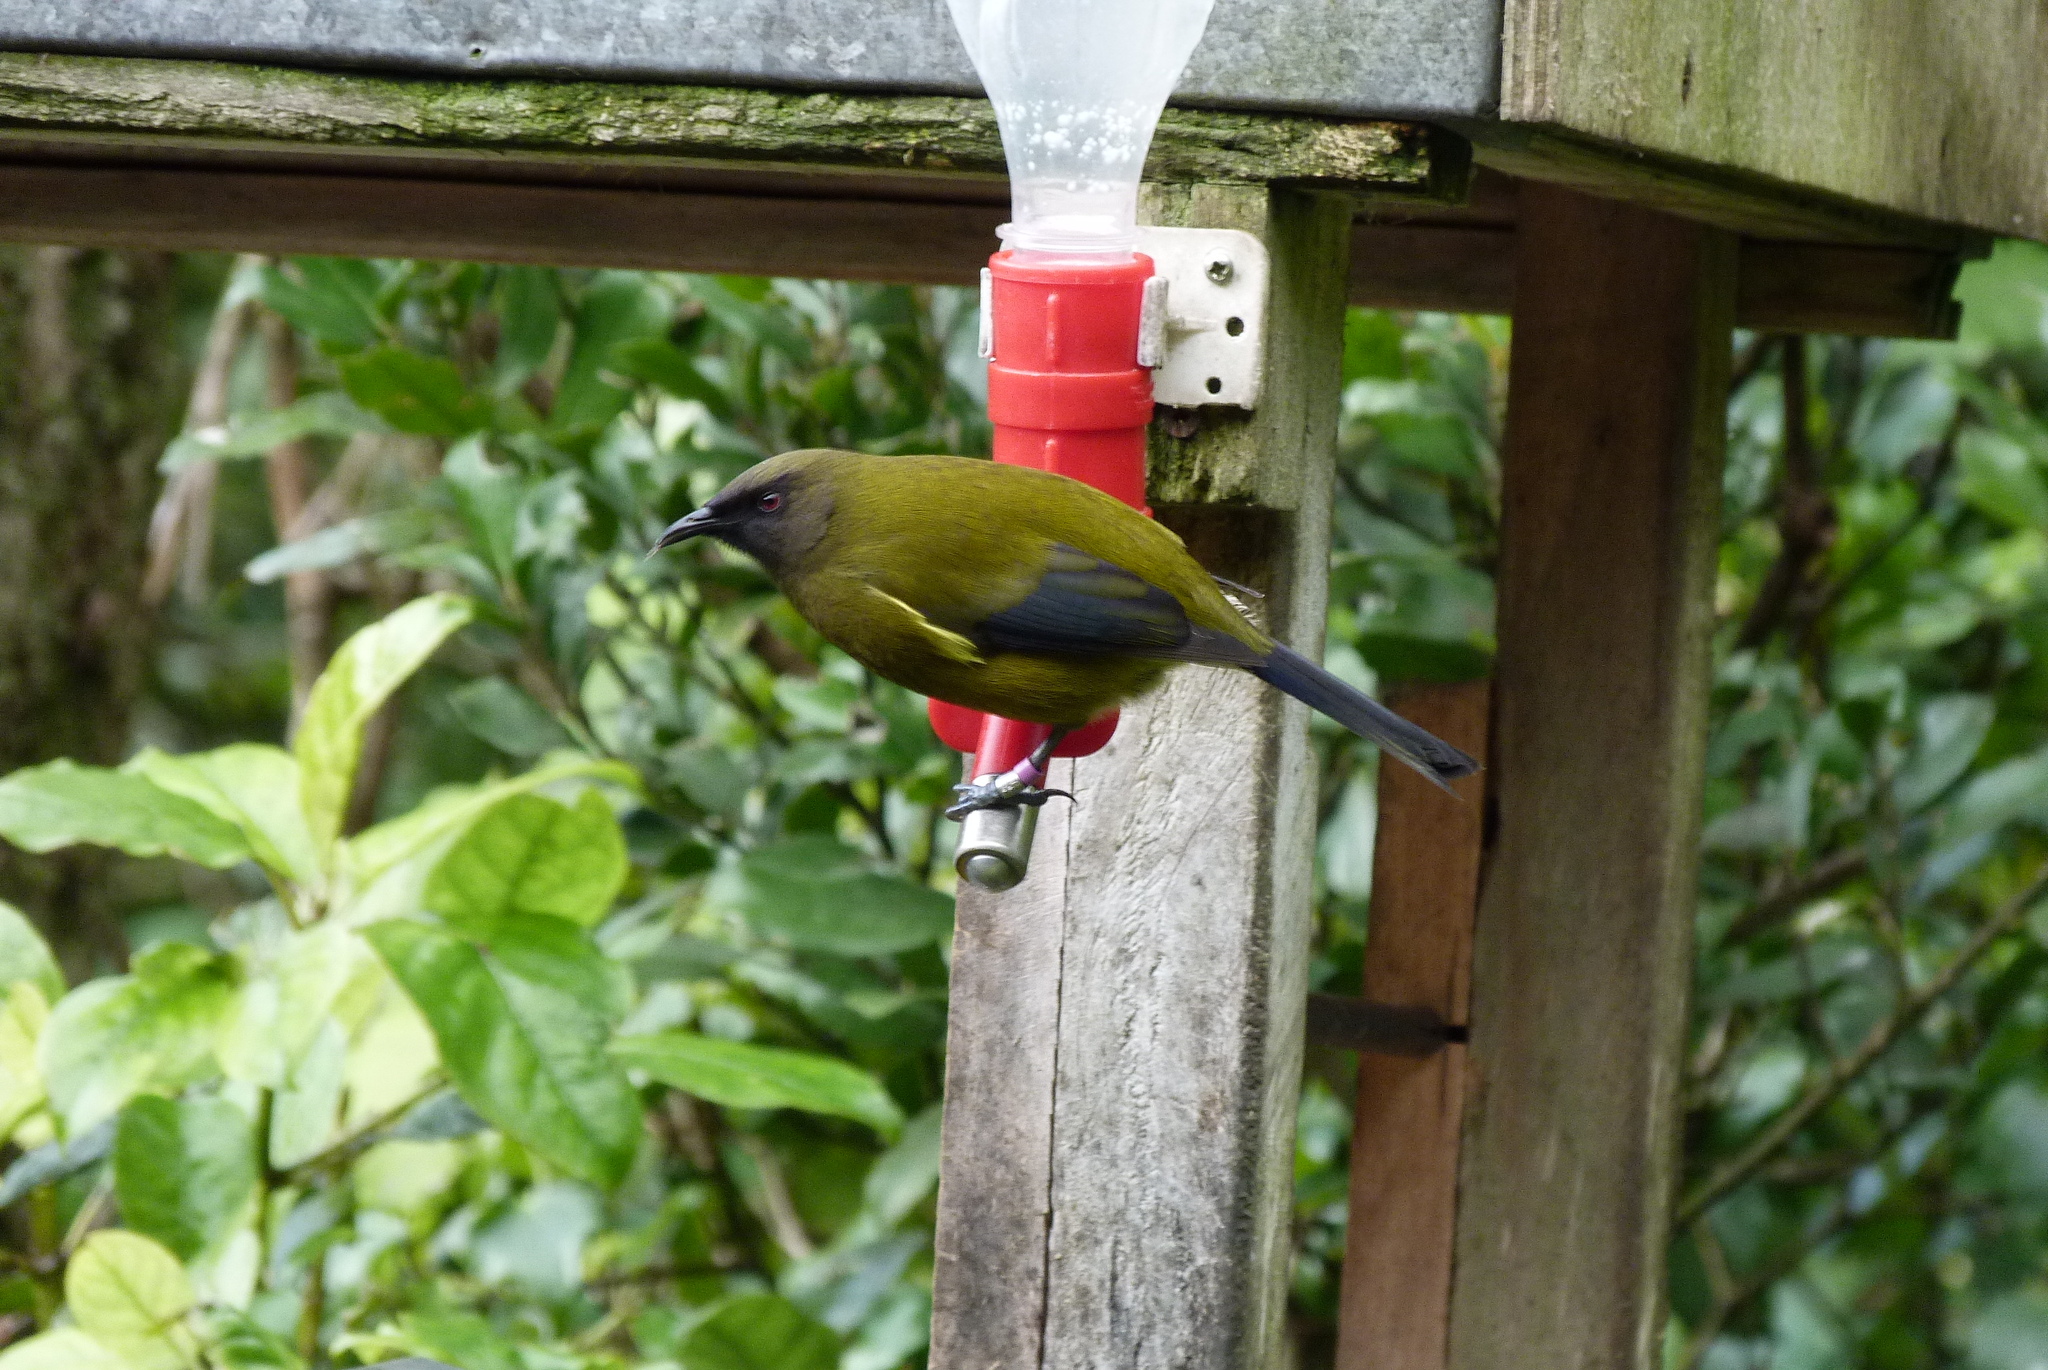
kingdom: Animalia
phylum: Chordata
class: Aves
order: Passeriformes
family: Meliphagidae
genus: Anthornis
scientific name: Anthornis melanura
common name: New zealand bellbird
